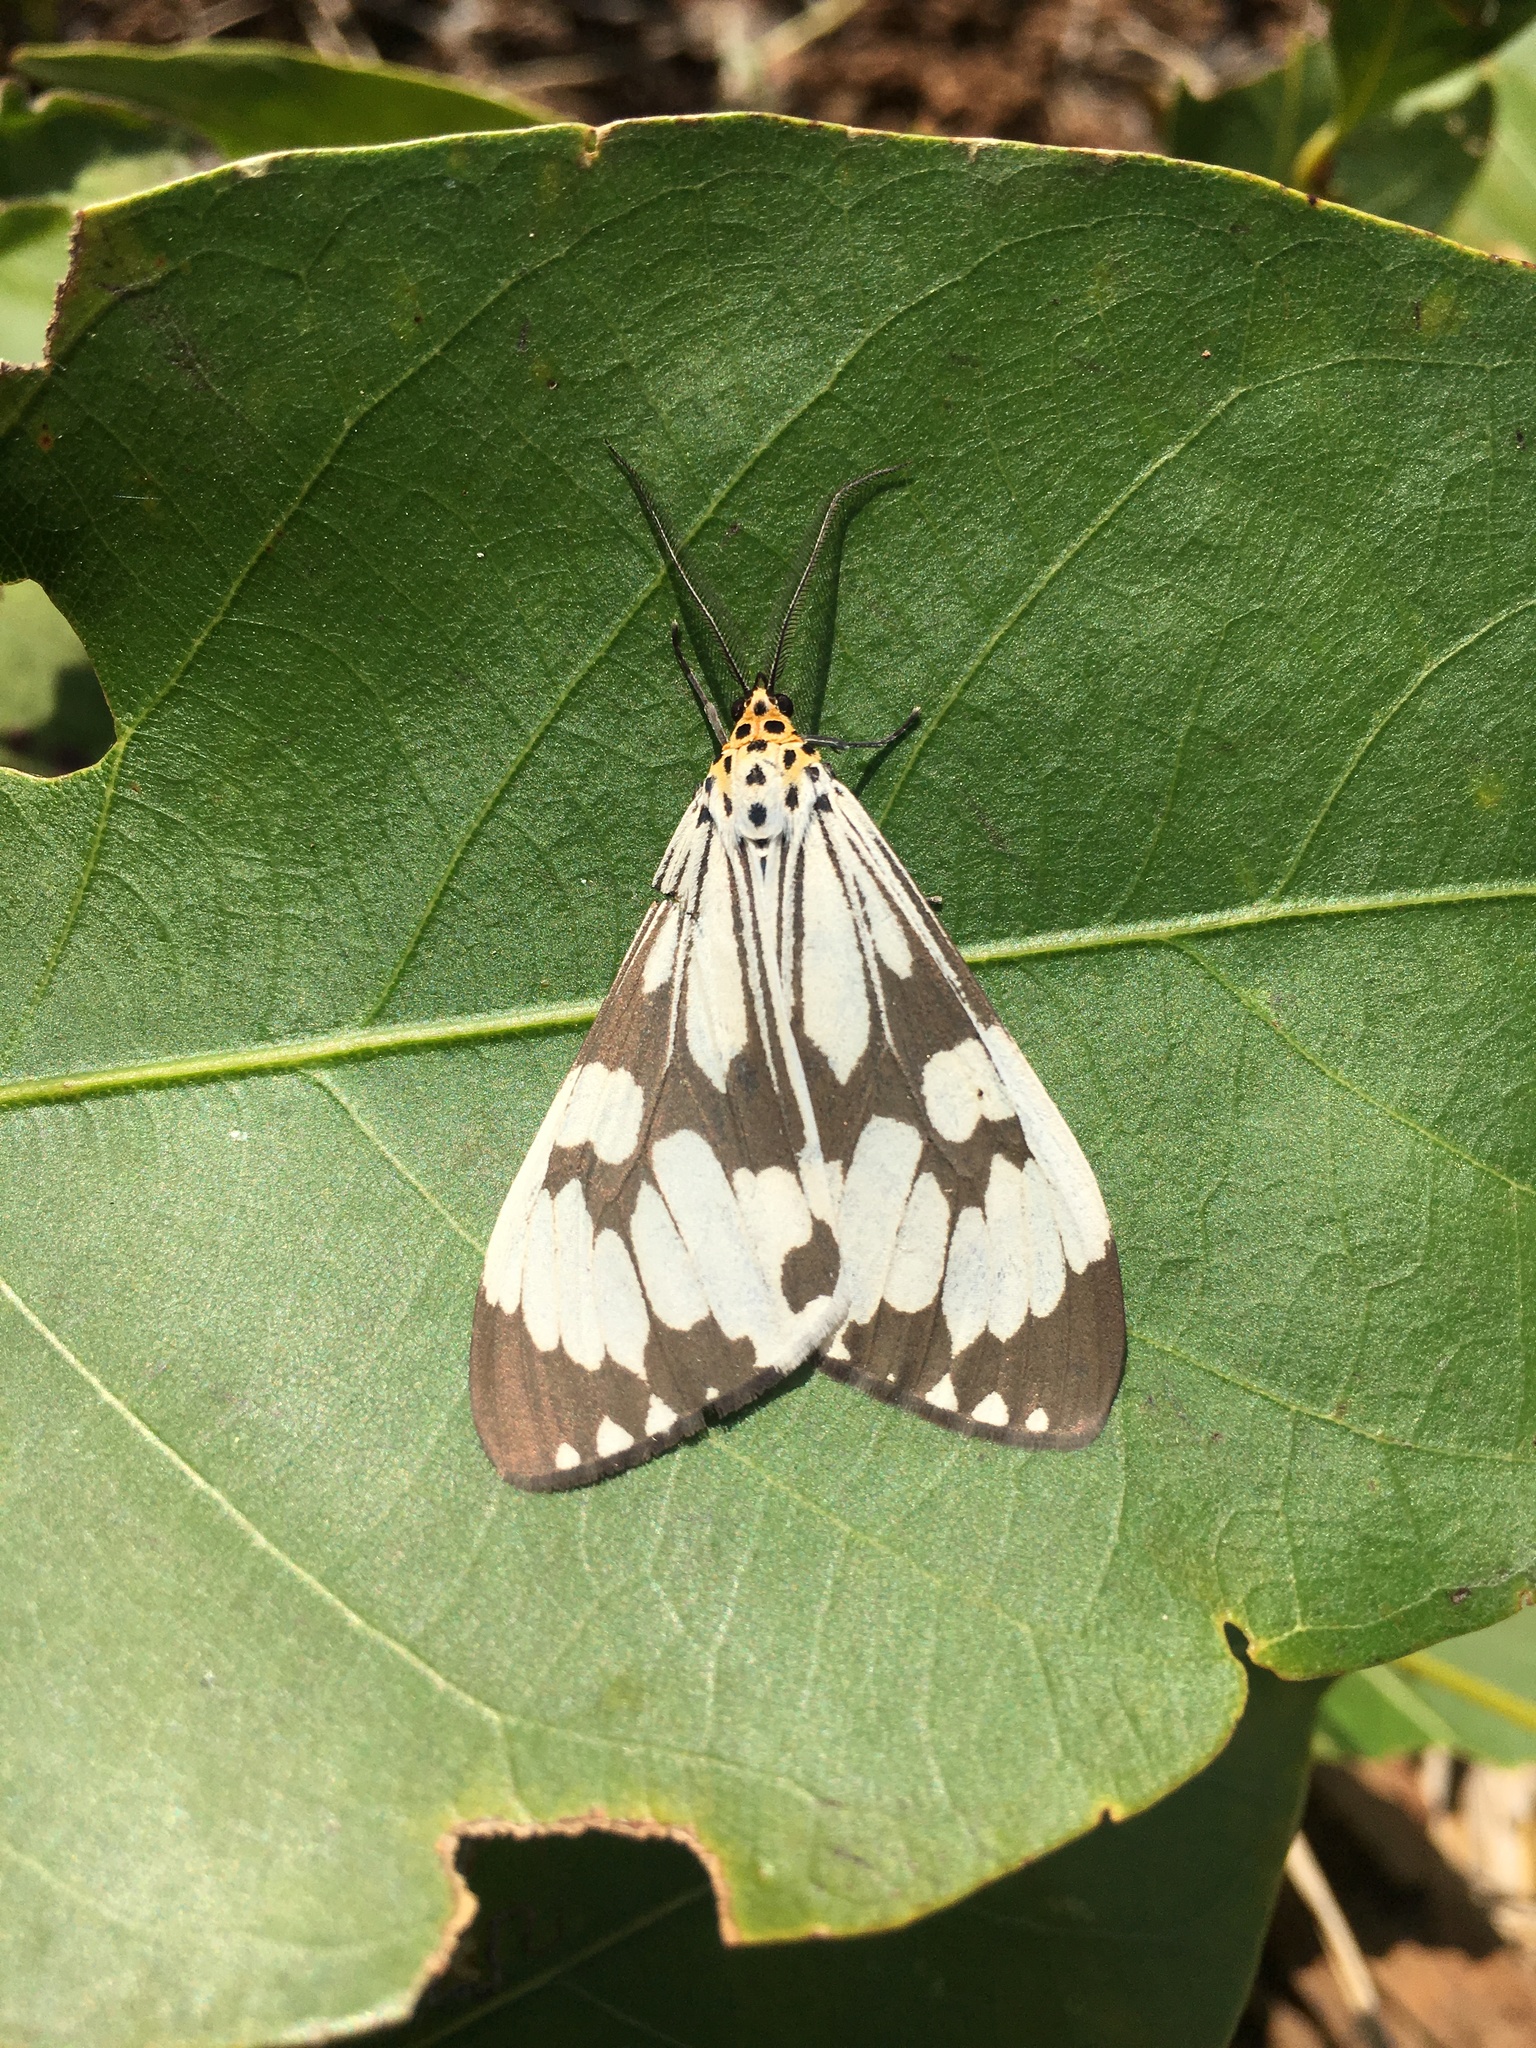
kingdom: Animalia
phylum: Arthropoda
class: Insecta
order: Lepidoptera
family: Erebidae
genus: Nyctemera
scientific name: Nyctemera adversata
